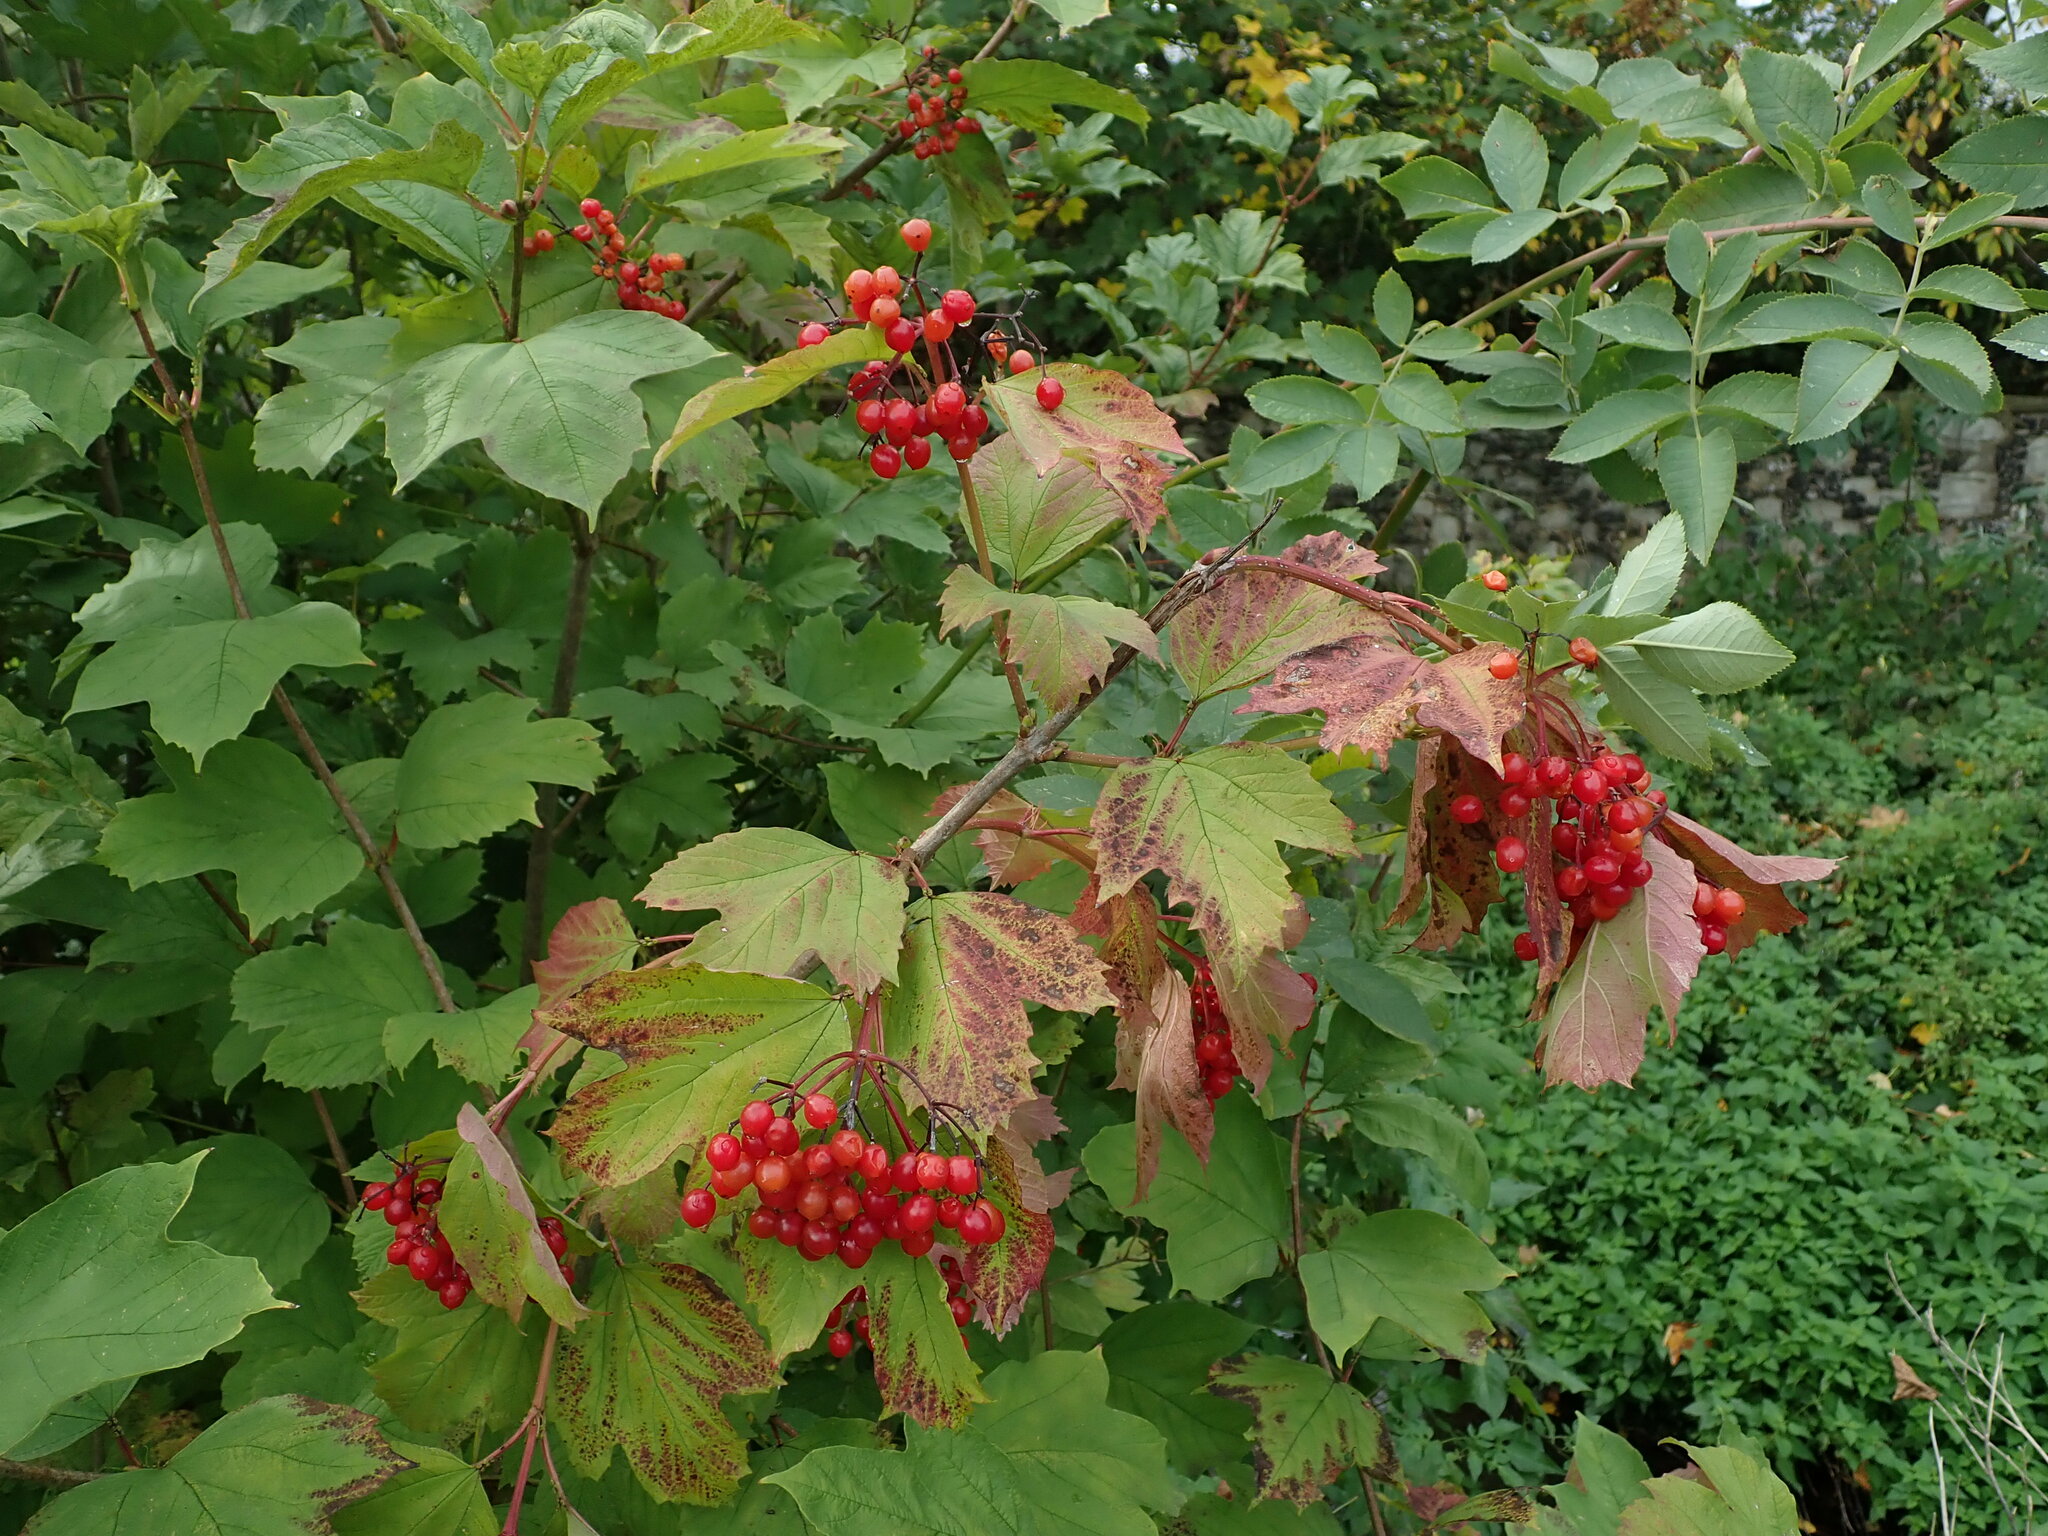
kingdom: Plantae
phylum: Tracheophyta
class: Magnoliopsida
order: Dipsacales
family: Viburnaceae
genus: Viburnum
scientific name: Viburnum opulus
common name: Guelder-rose
